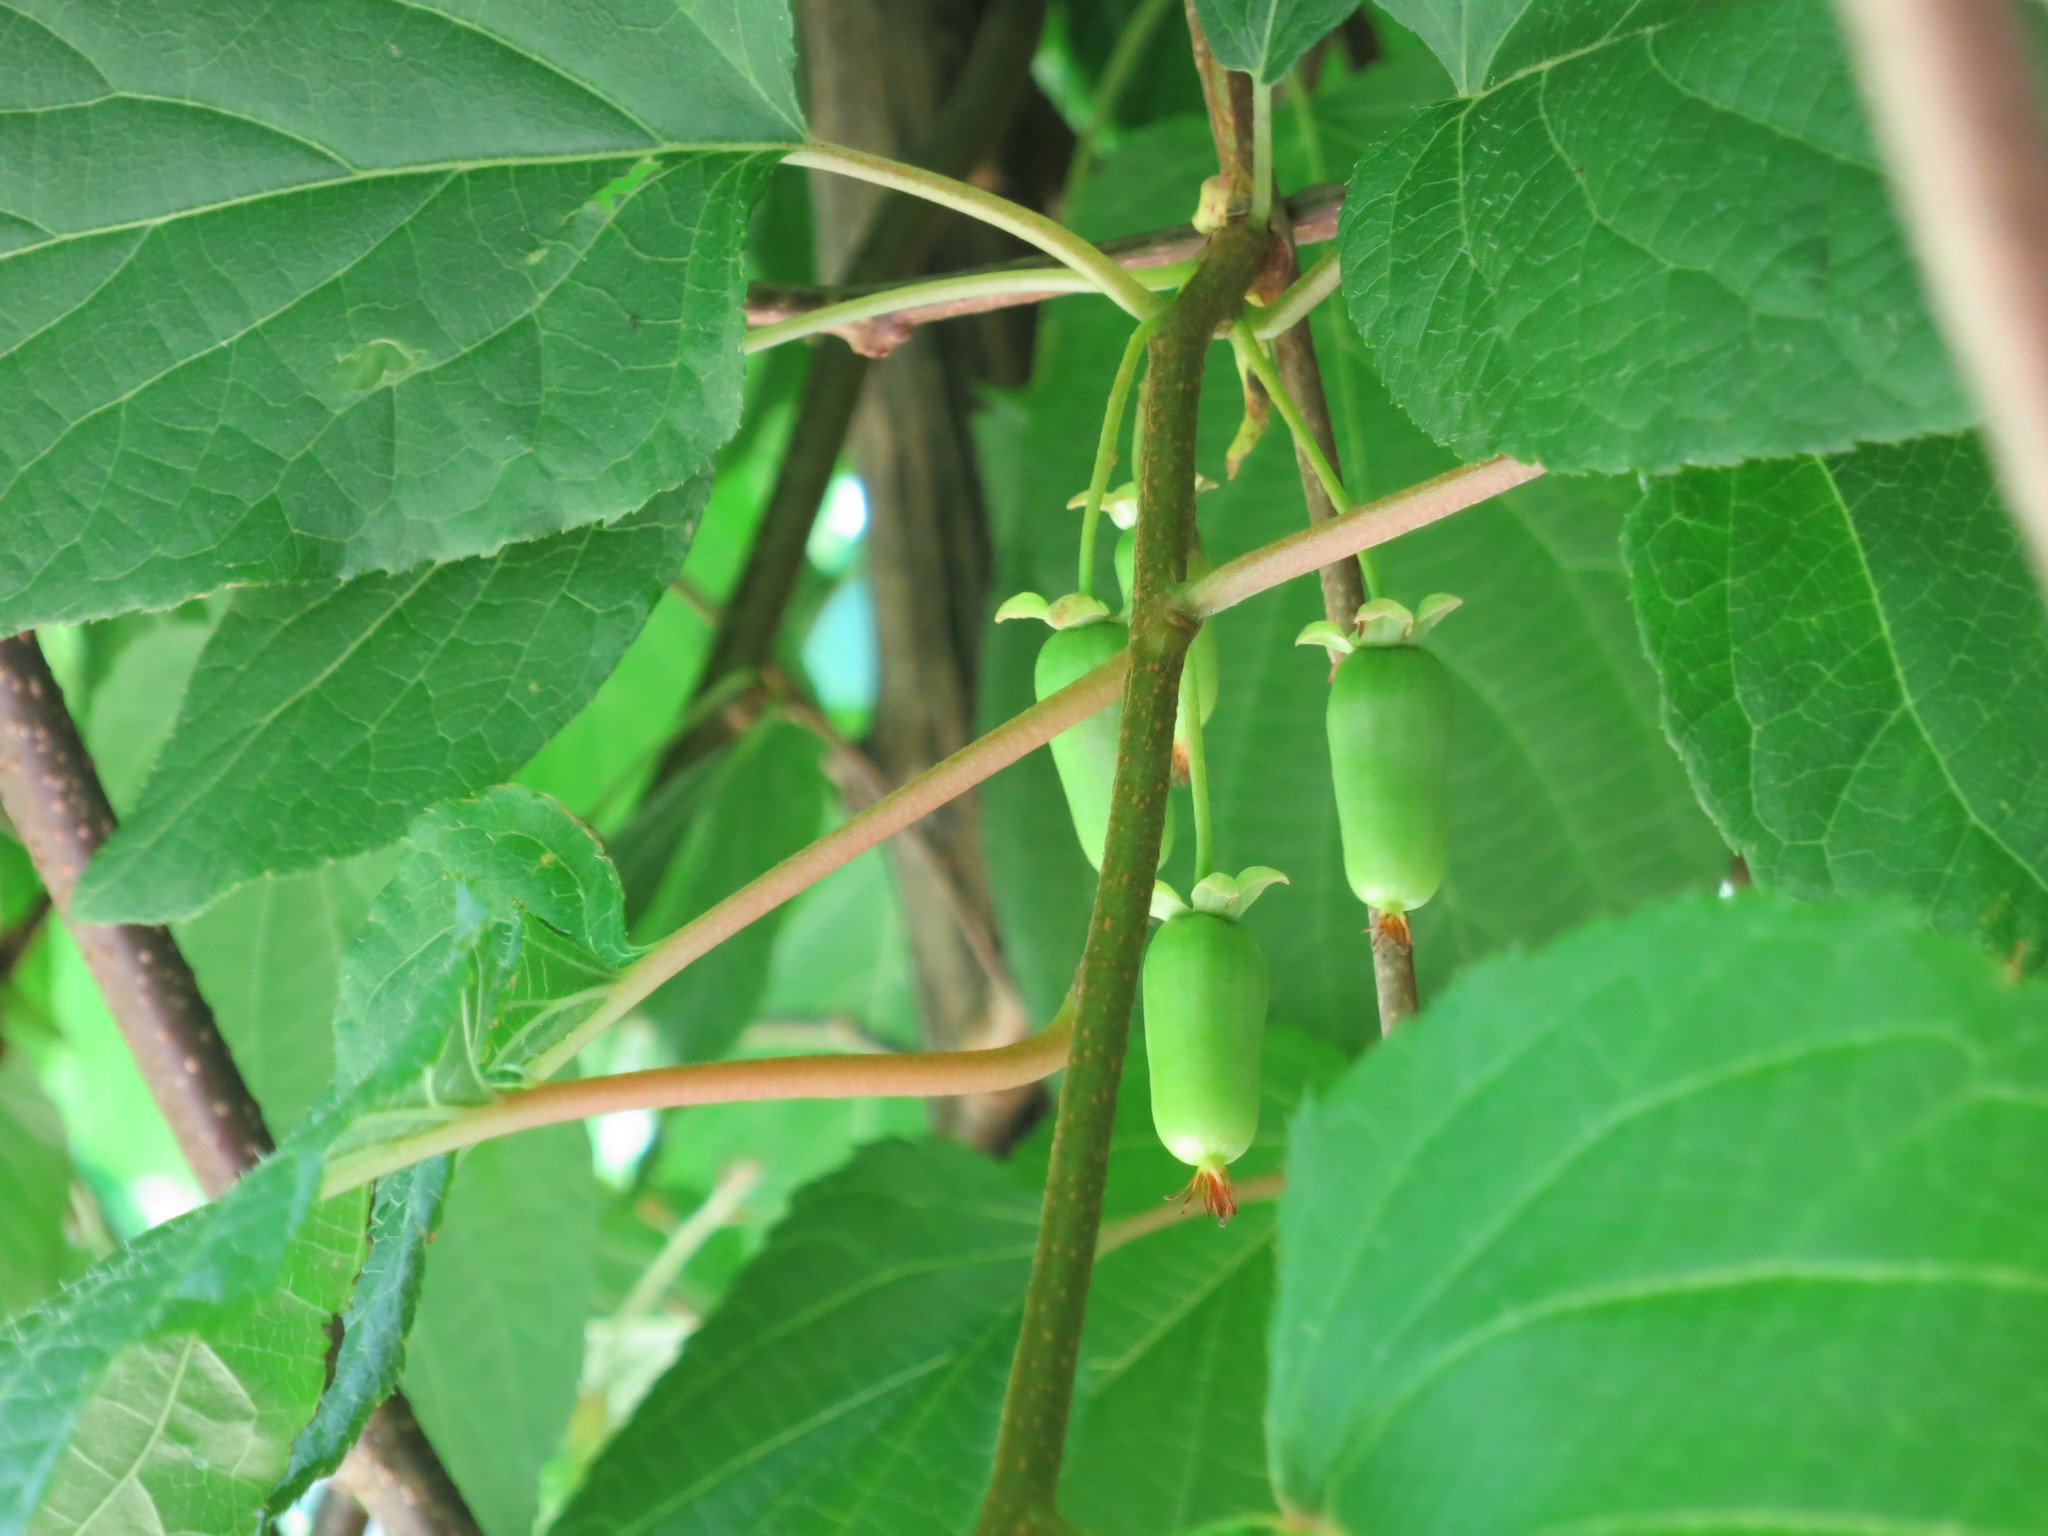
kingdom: Plantae
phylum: Tracheophyta
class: Magnoliopsida
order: Ericales
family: Actinidiaceae
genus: Actinidia
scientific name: Actinidia kolomikta
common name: Arctic beauty kiwi
